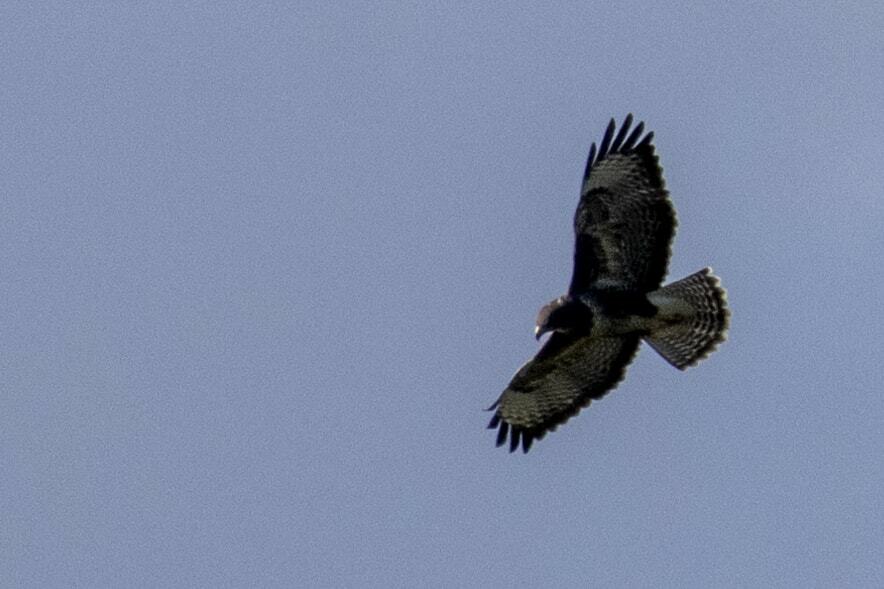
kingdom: Animalia
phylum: Chordata
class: Aves
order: Accipitriformes
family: Accipitridae
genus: Buteo
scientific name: Buteo buteo
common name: Common buzzard
